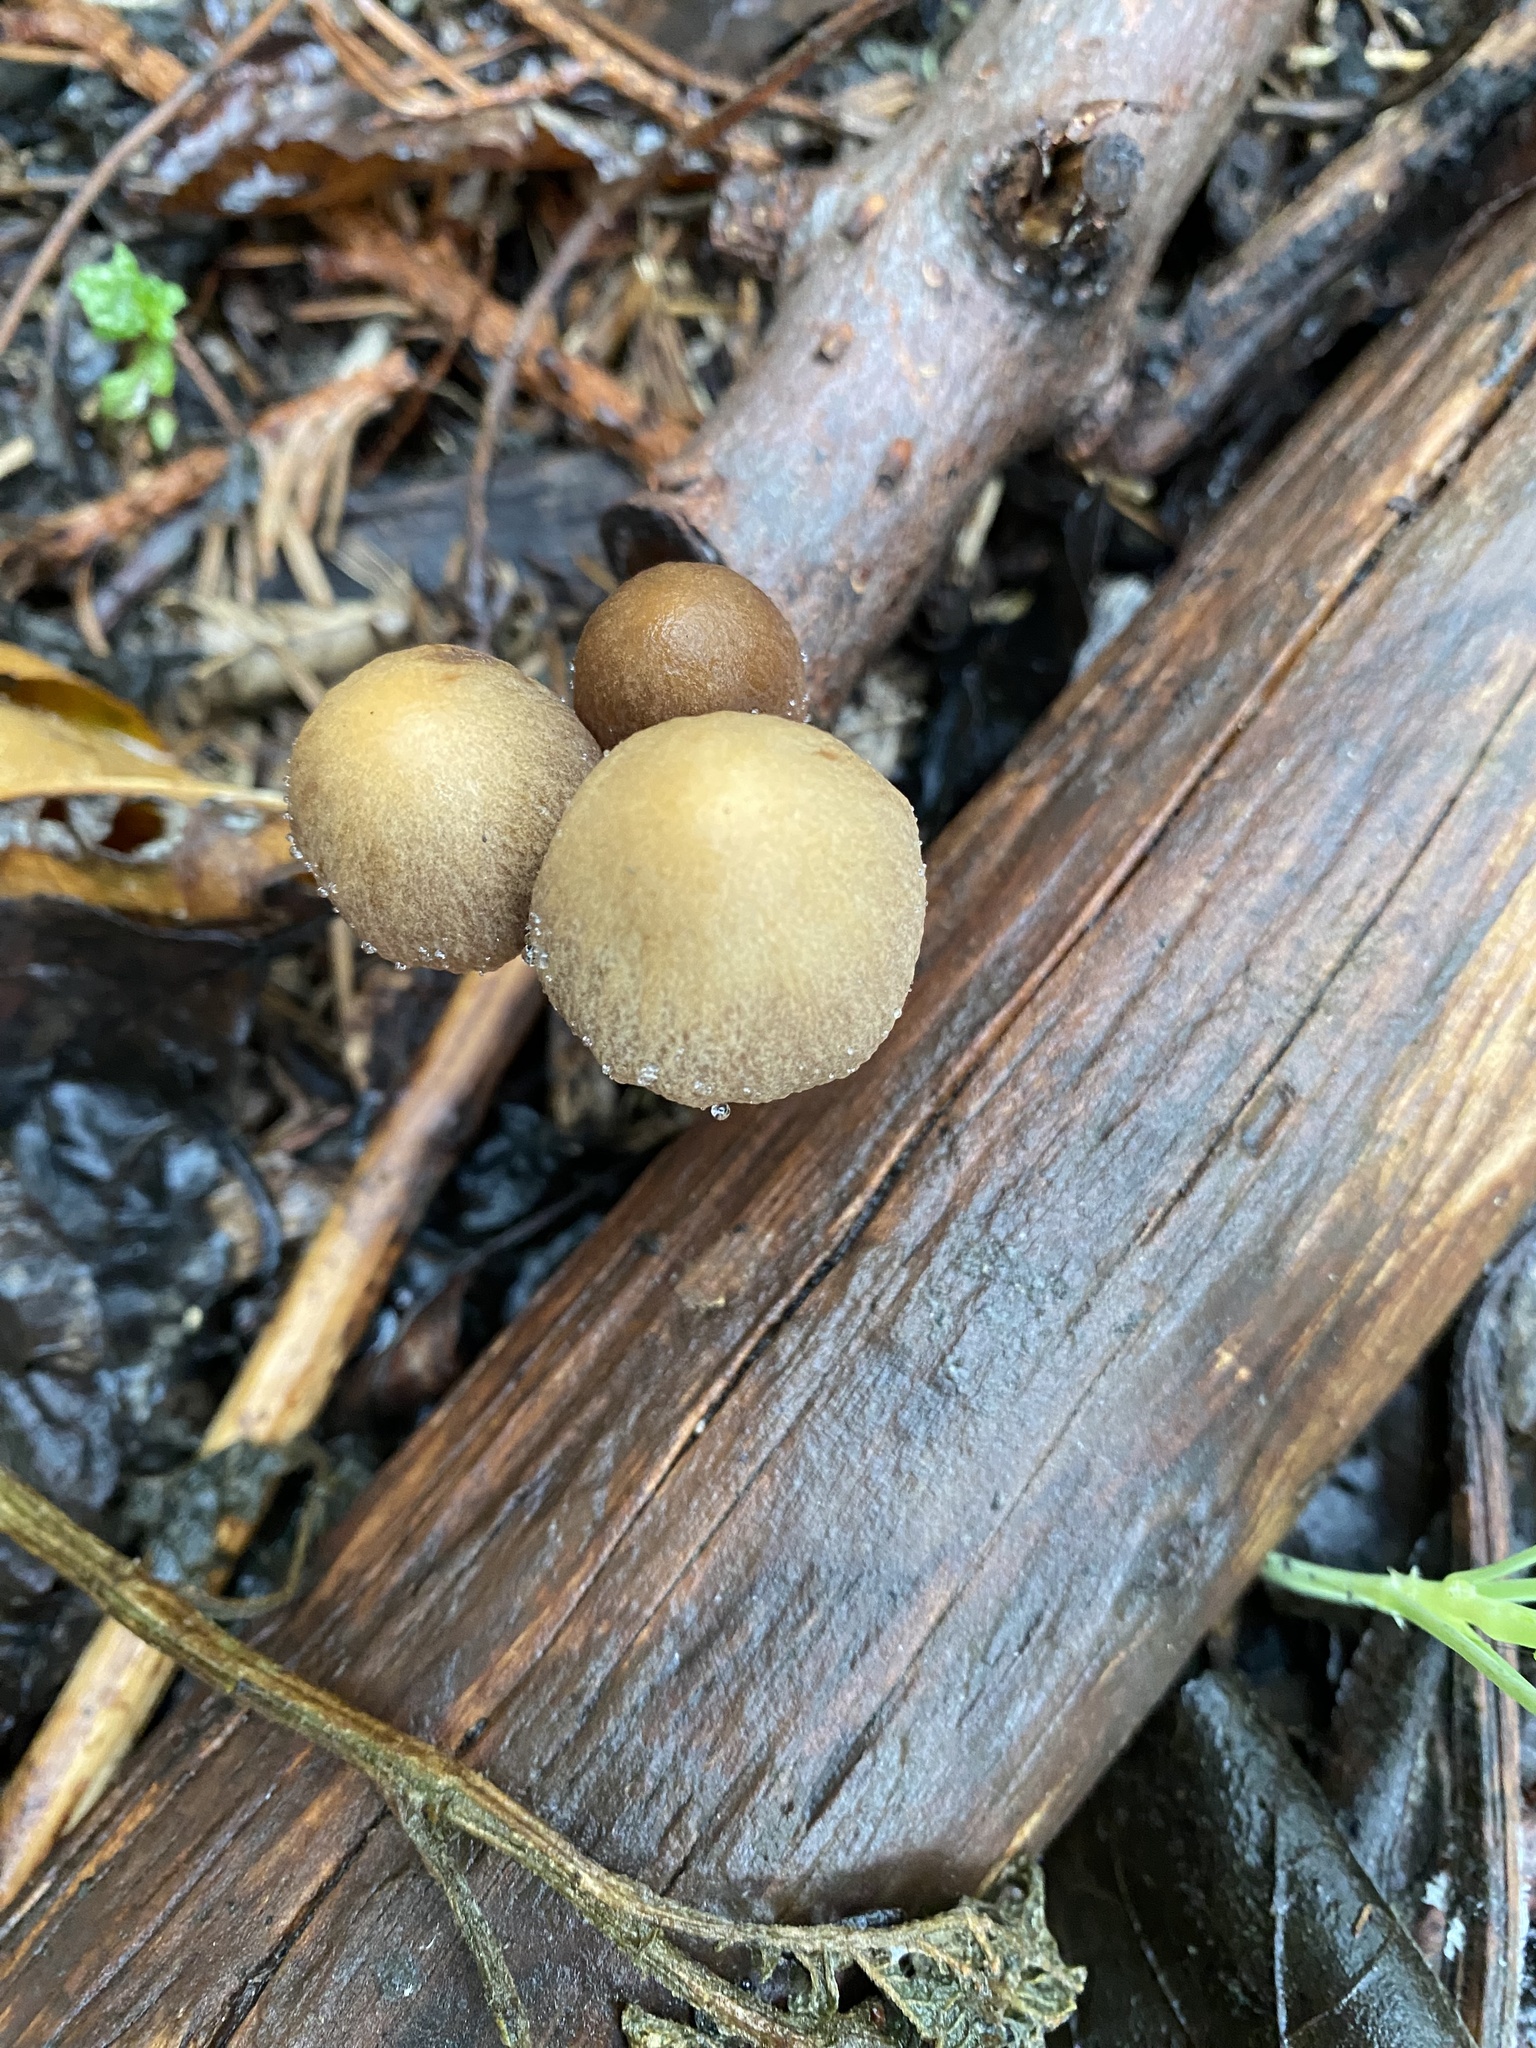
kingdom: Fungi
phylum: Basidiomycota
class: Agaricomycetes
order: Agaricales
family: Psathyrellaceae
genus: Psathyrella
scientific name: Psathyrella corrugis
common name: Red edge brittlestem
